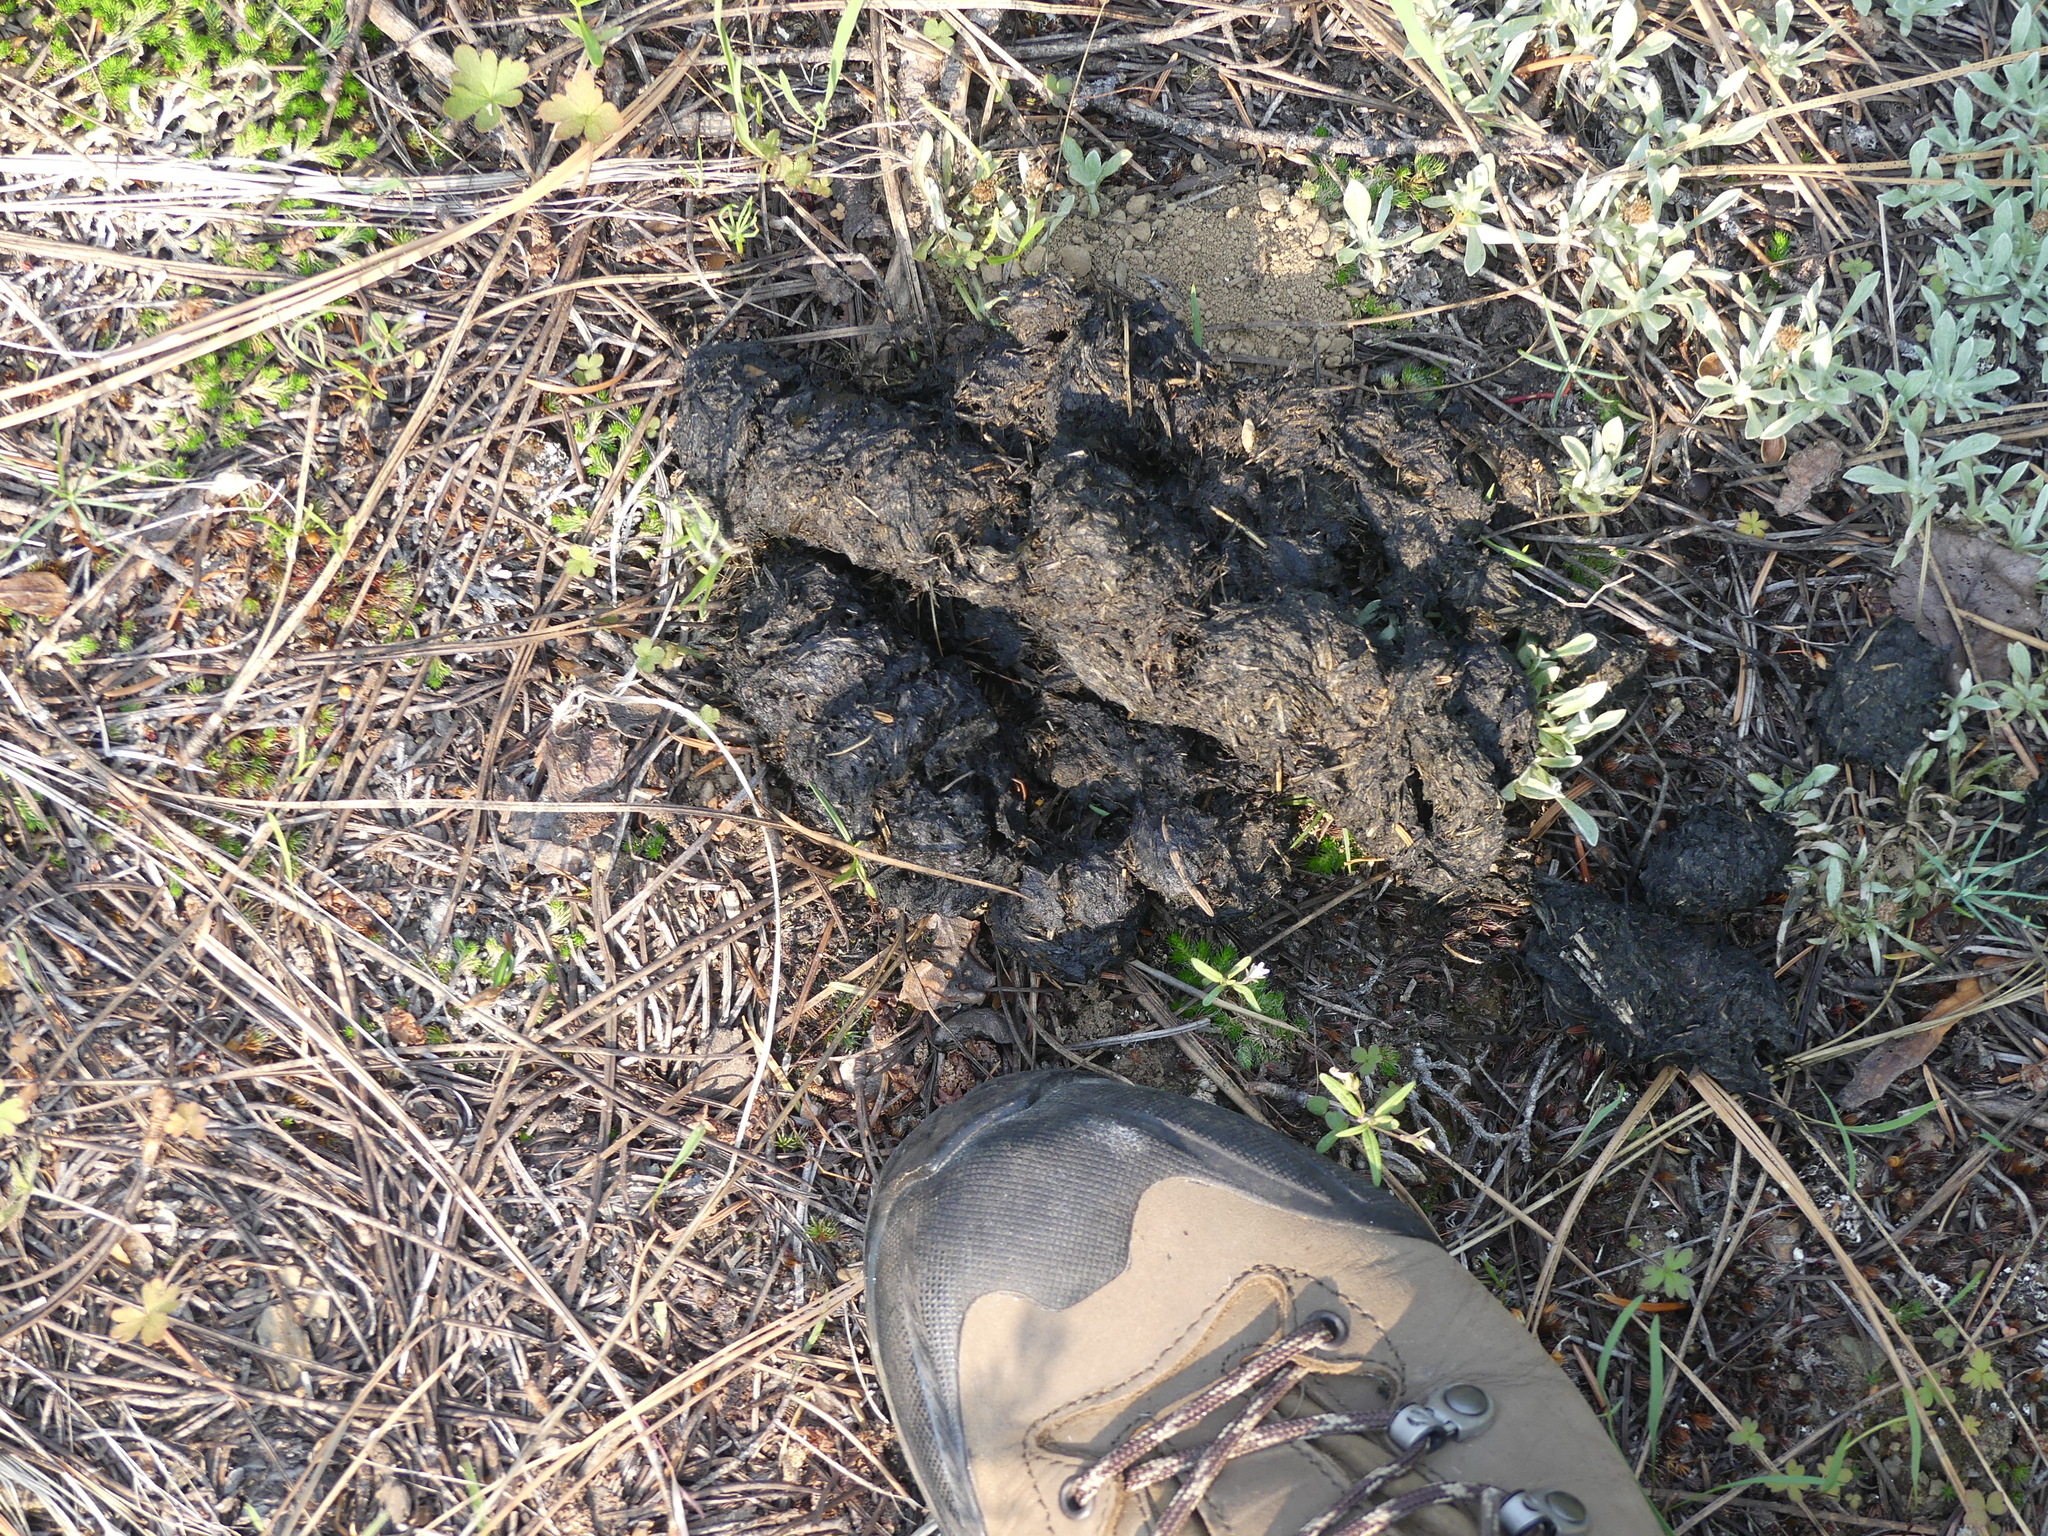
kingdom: Animalia
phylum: Chordata
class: Mammalia
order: Carnivora
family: Ursidae
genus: Ursus
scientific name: Ursus americanus
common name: American black bear
